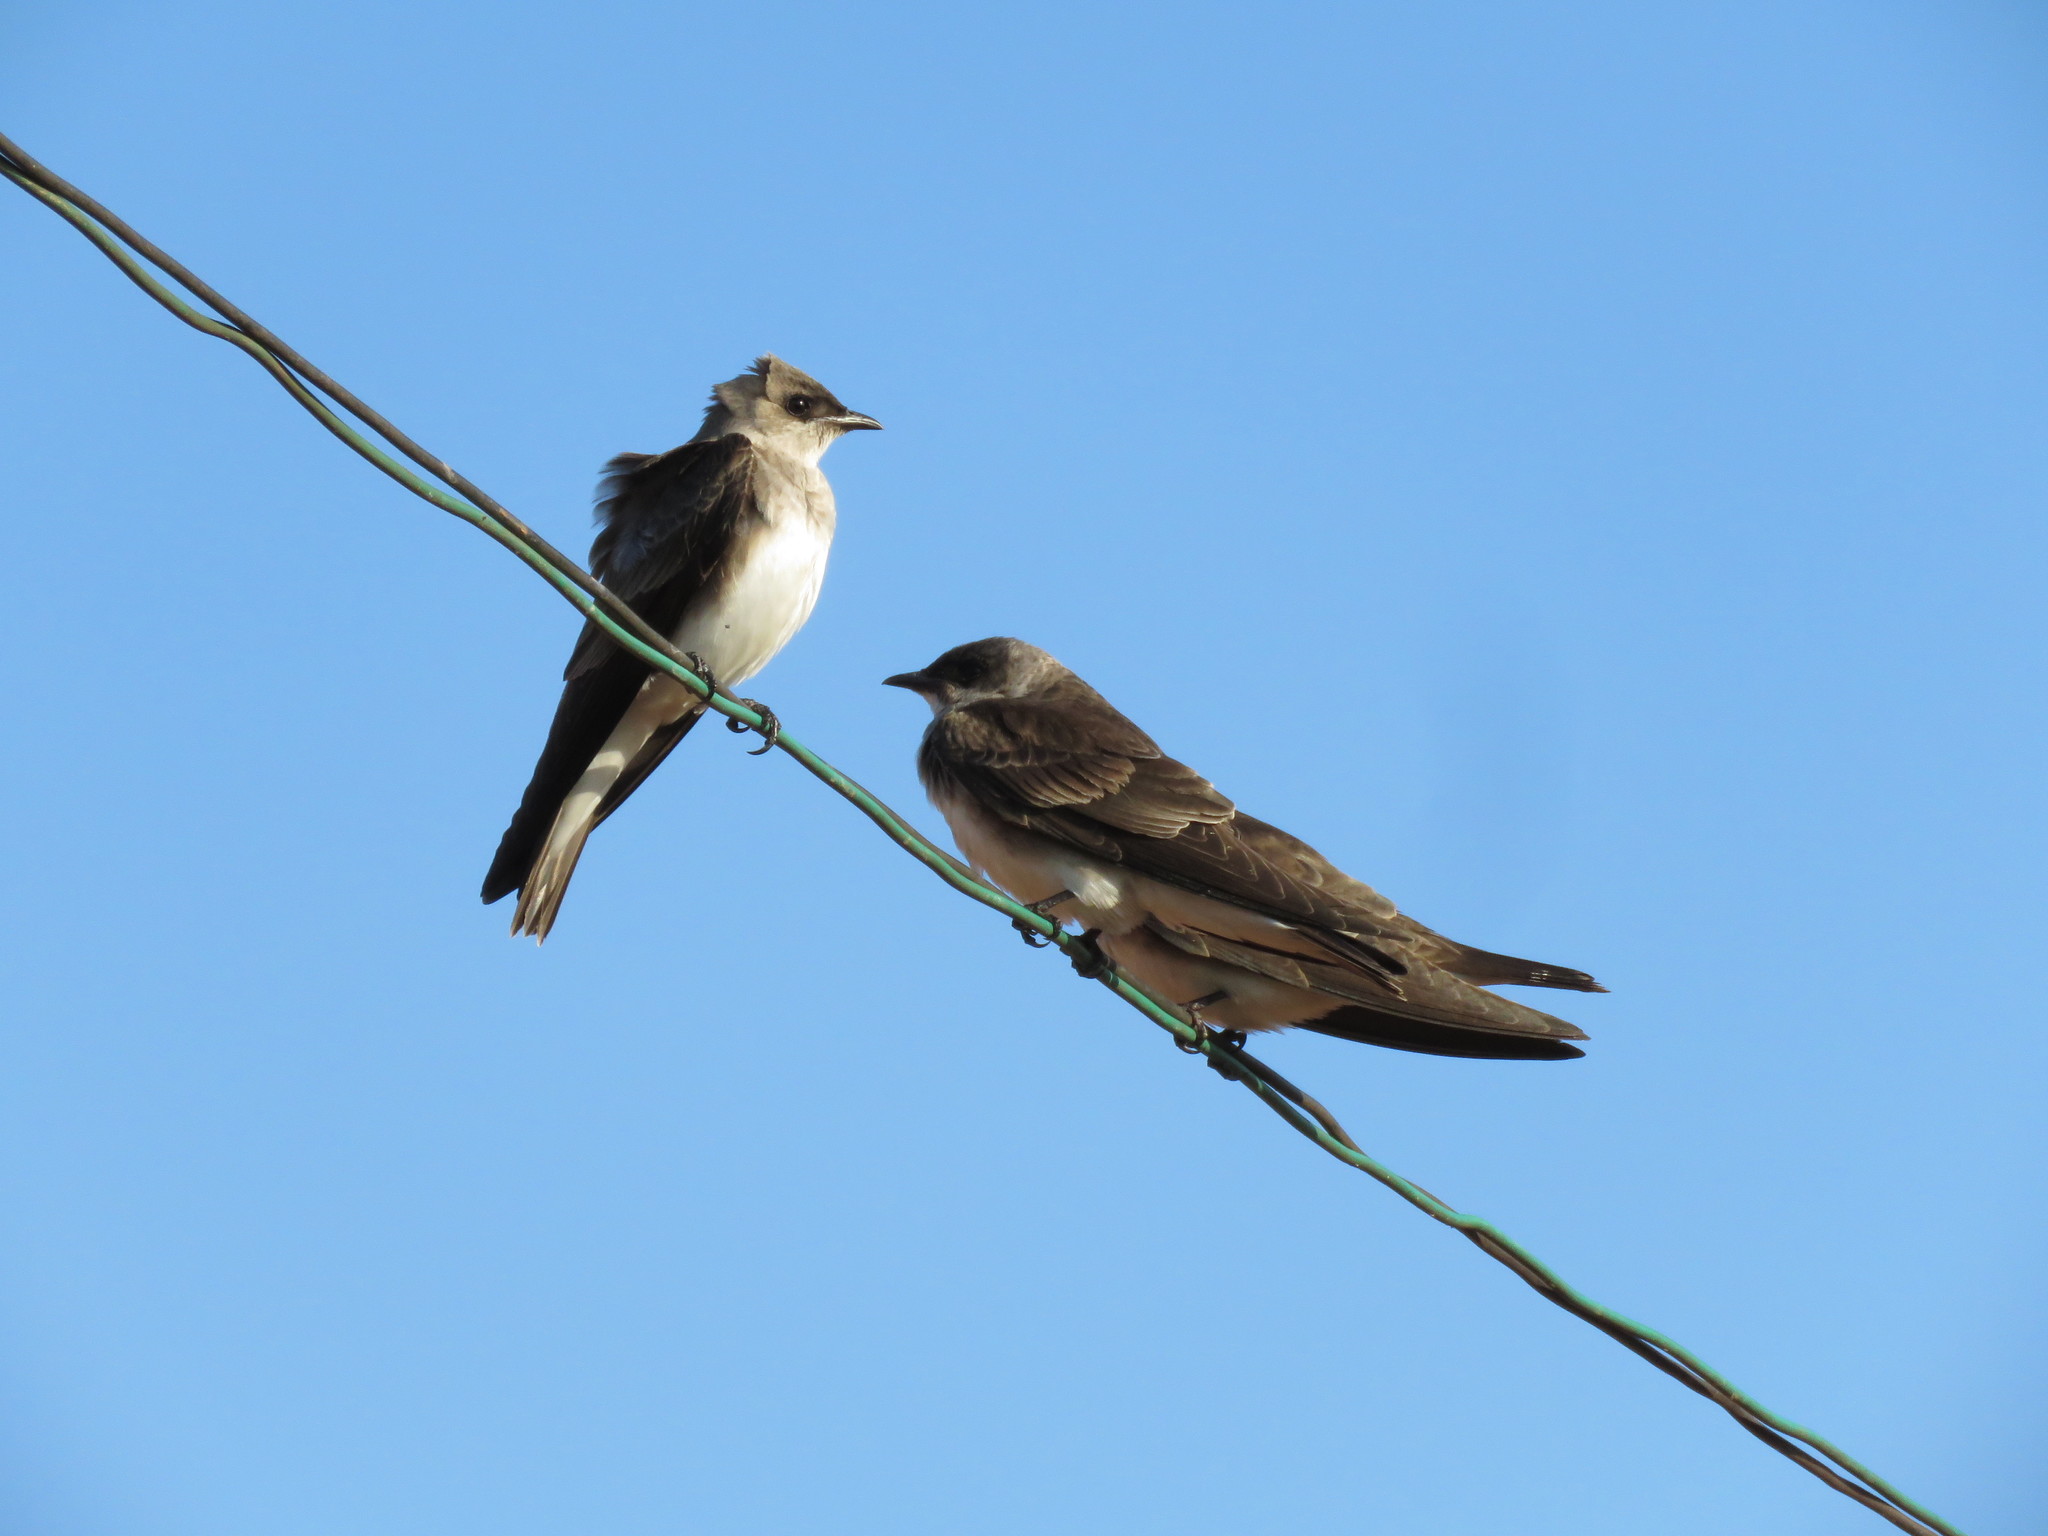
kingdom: Animalia
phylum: Chordata
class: Aves
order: Passeriformes
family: Hirundinidae
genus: Progne
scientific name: Progne tapera
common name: Brown-chested martin
